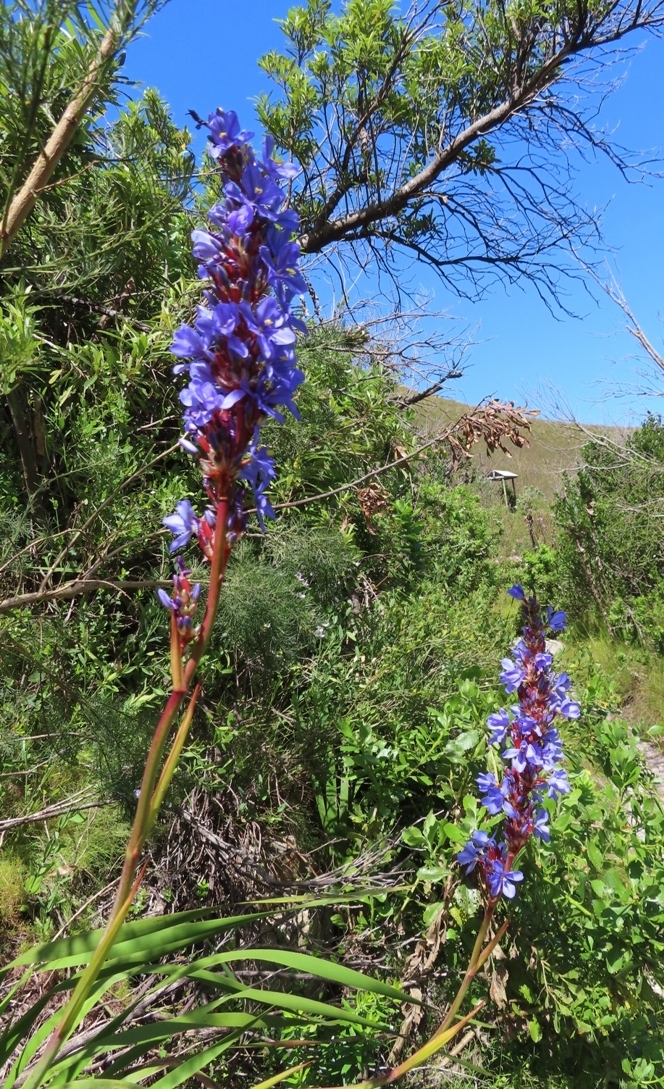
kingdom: Plantae
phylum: Tracheophyta
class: Liliopsida
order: Asparagales
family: Iridaceae
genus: Aristea
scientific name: Aristea capitata
